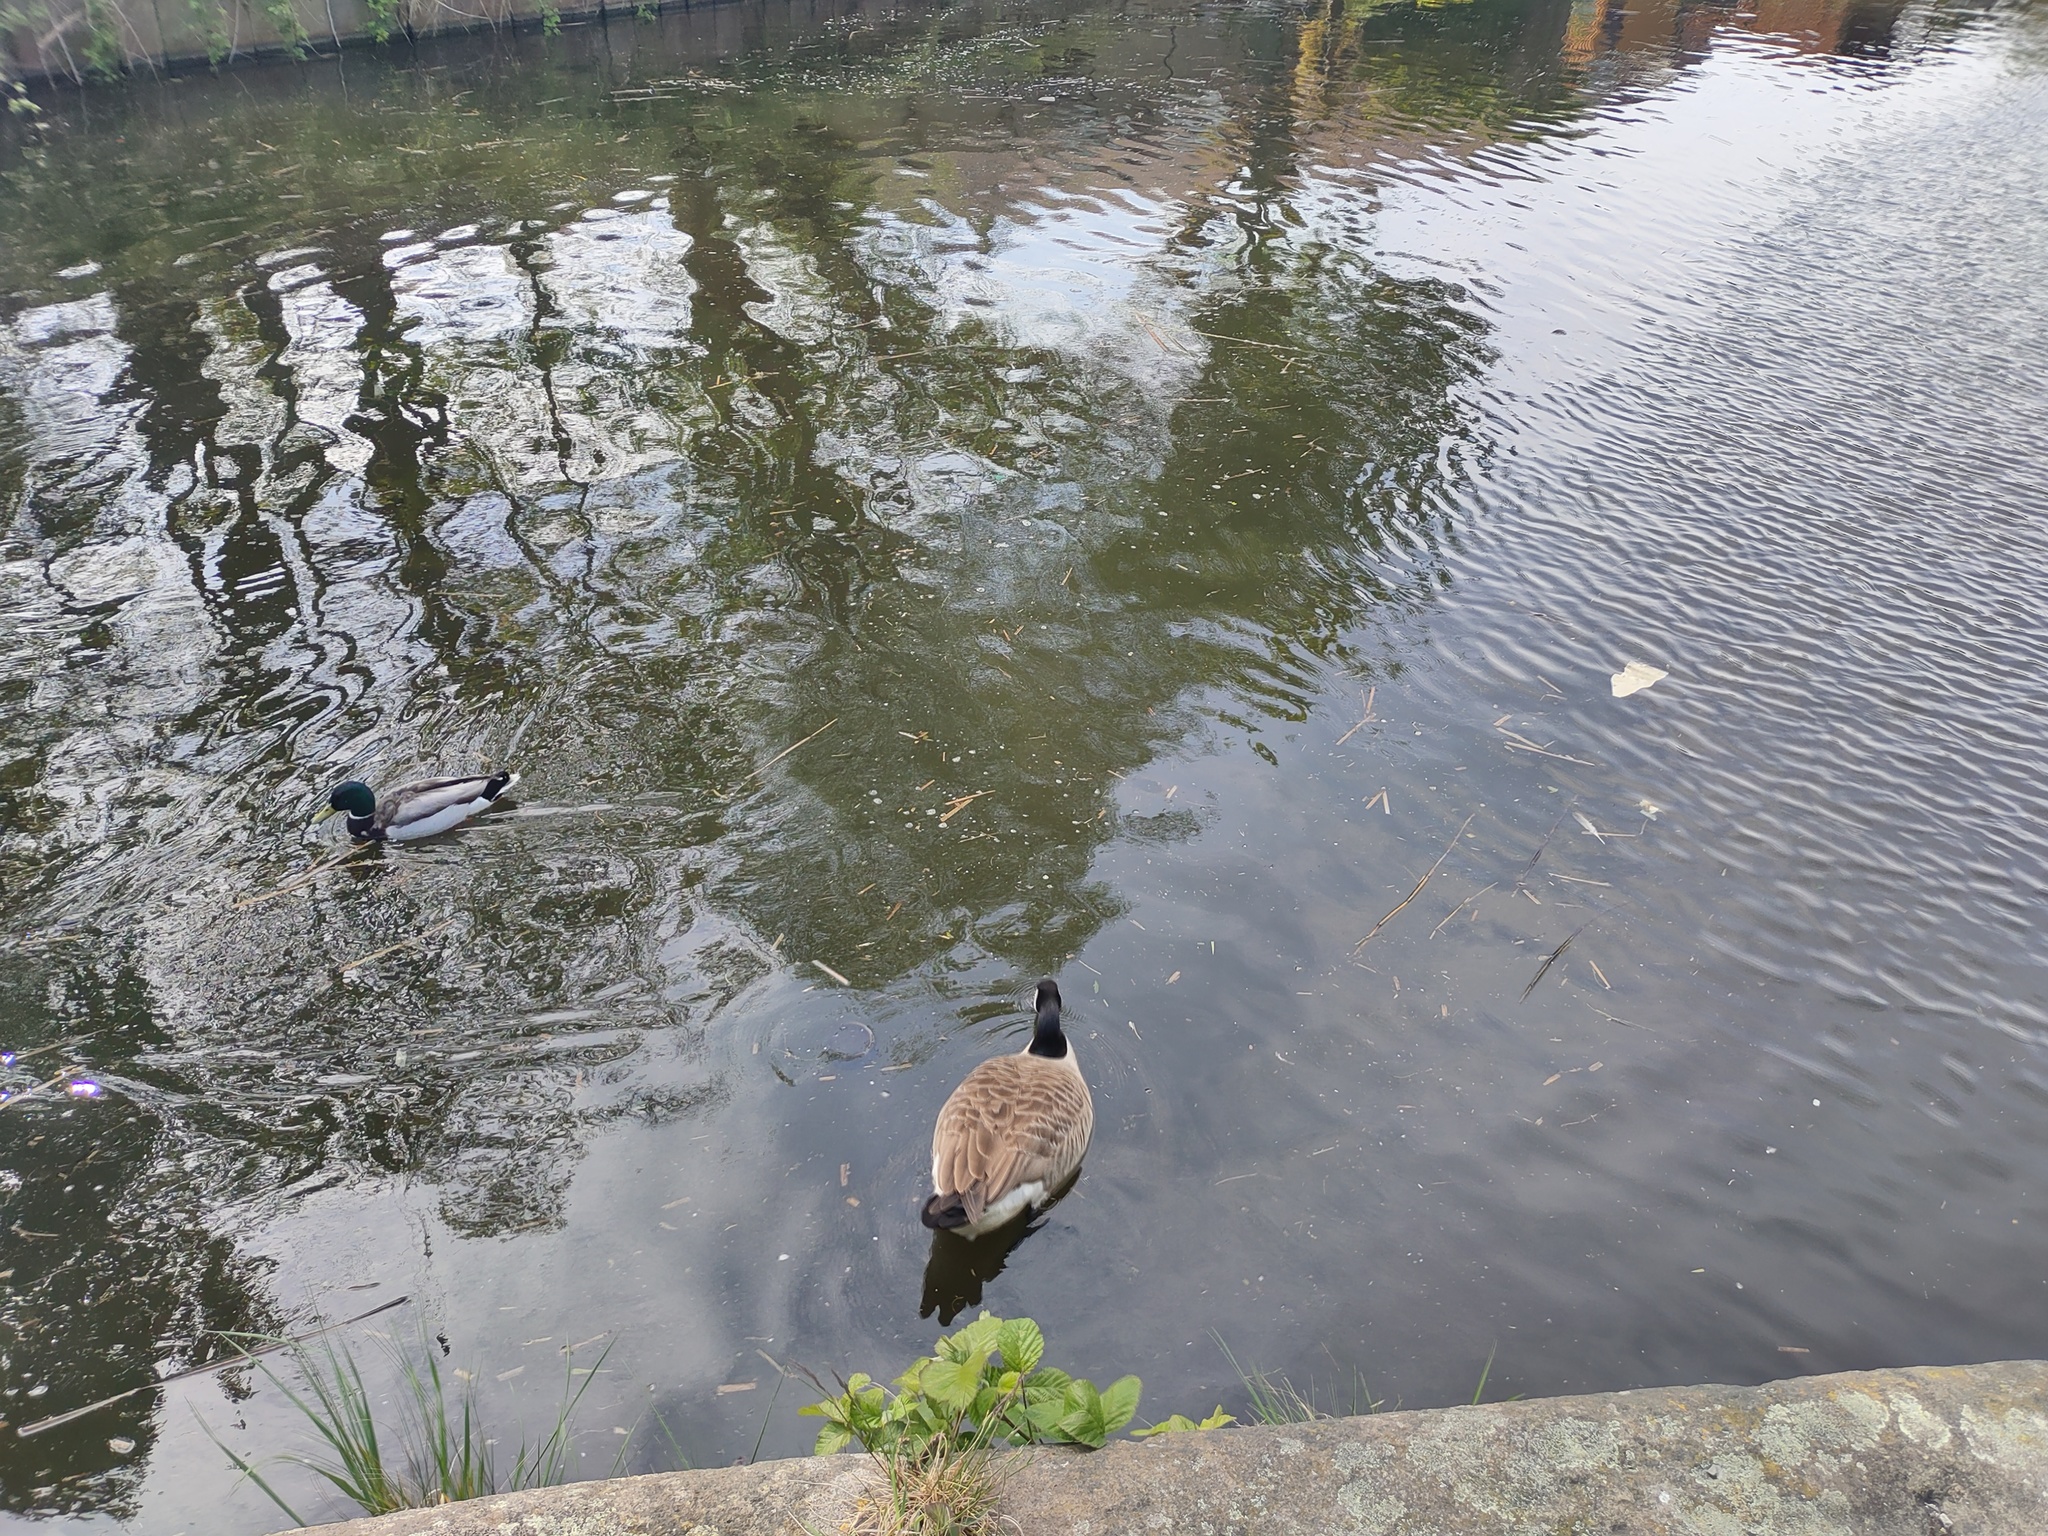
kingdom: Animalia
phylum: Chordata
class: Aves
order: Anseriformes
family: Anatidae
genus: Branta
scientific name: Branta canadensis
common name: Canada goose
